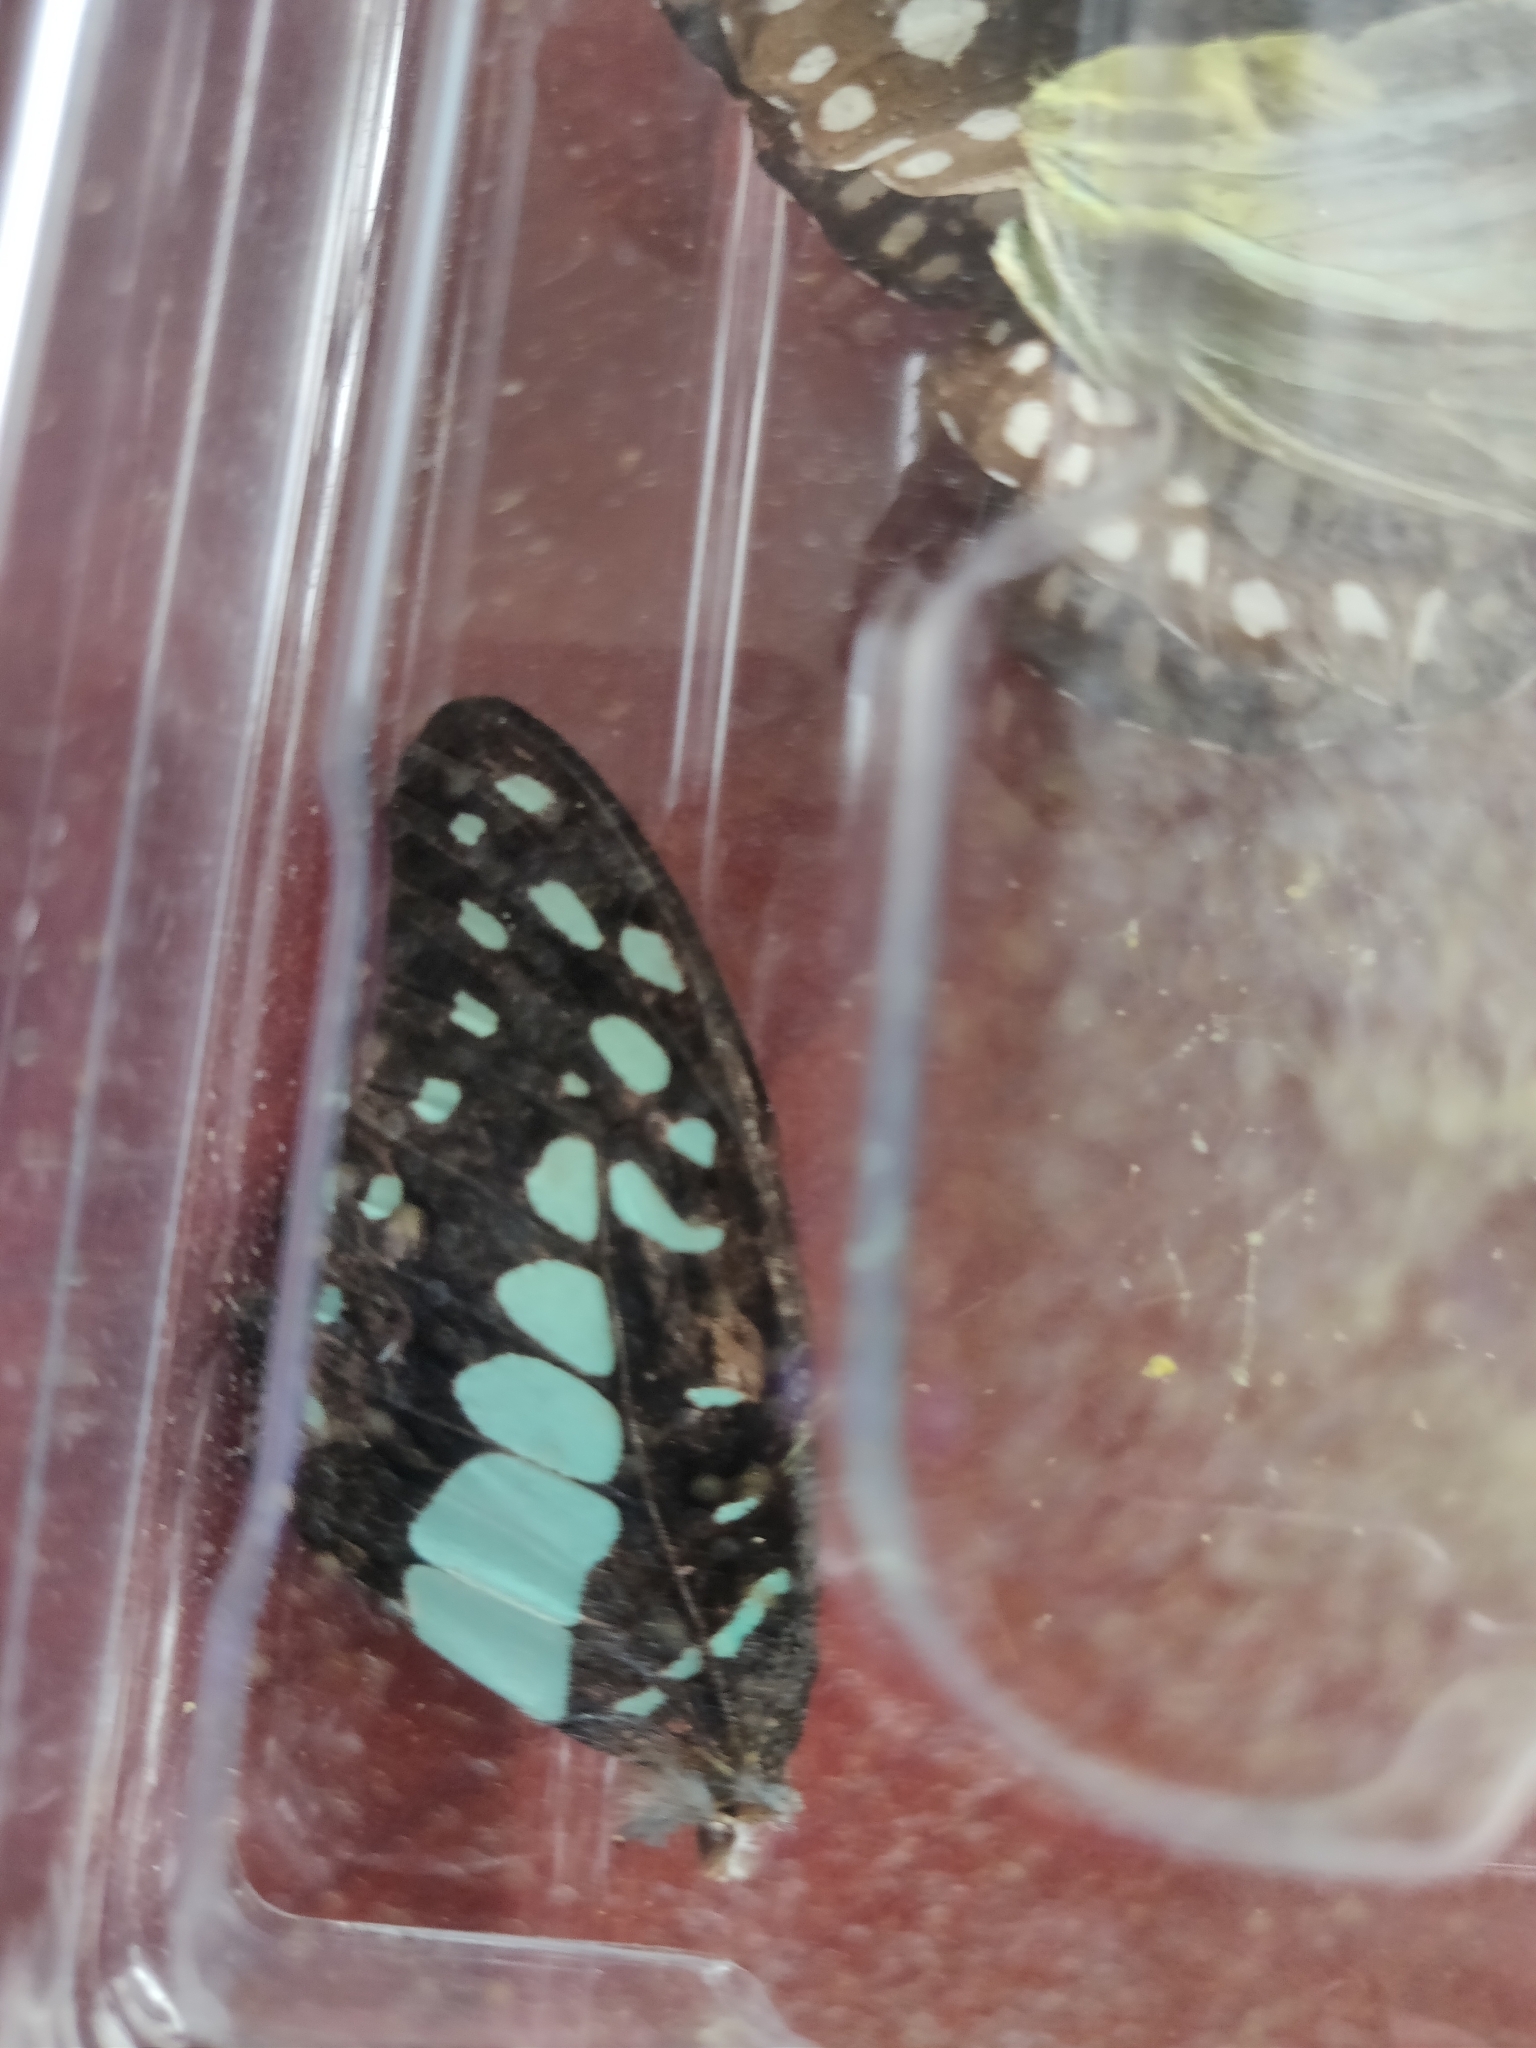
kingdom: Animalia
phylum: Arthropoda
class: Insecta
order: Lepidoptera
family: Papilionidae
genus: Graphium
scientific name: Graphium doson
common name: Common jay
